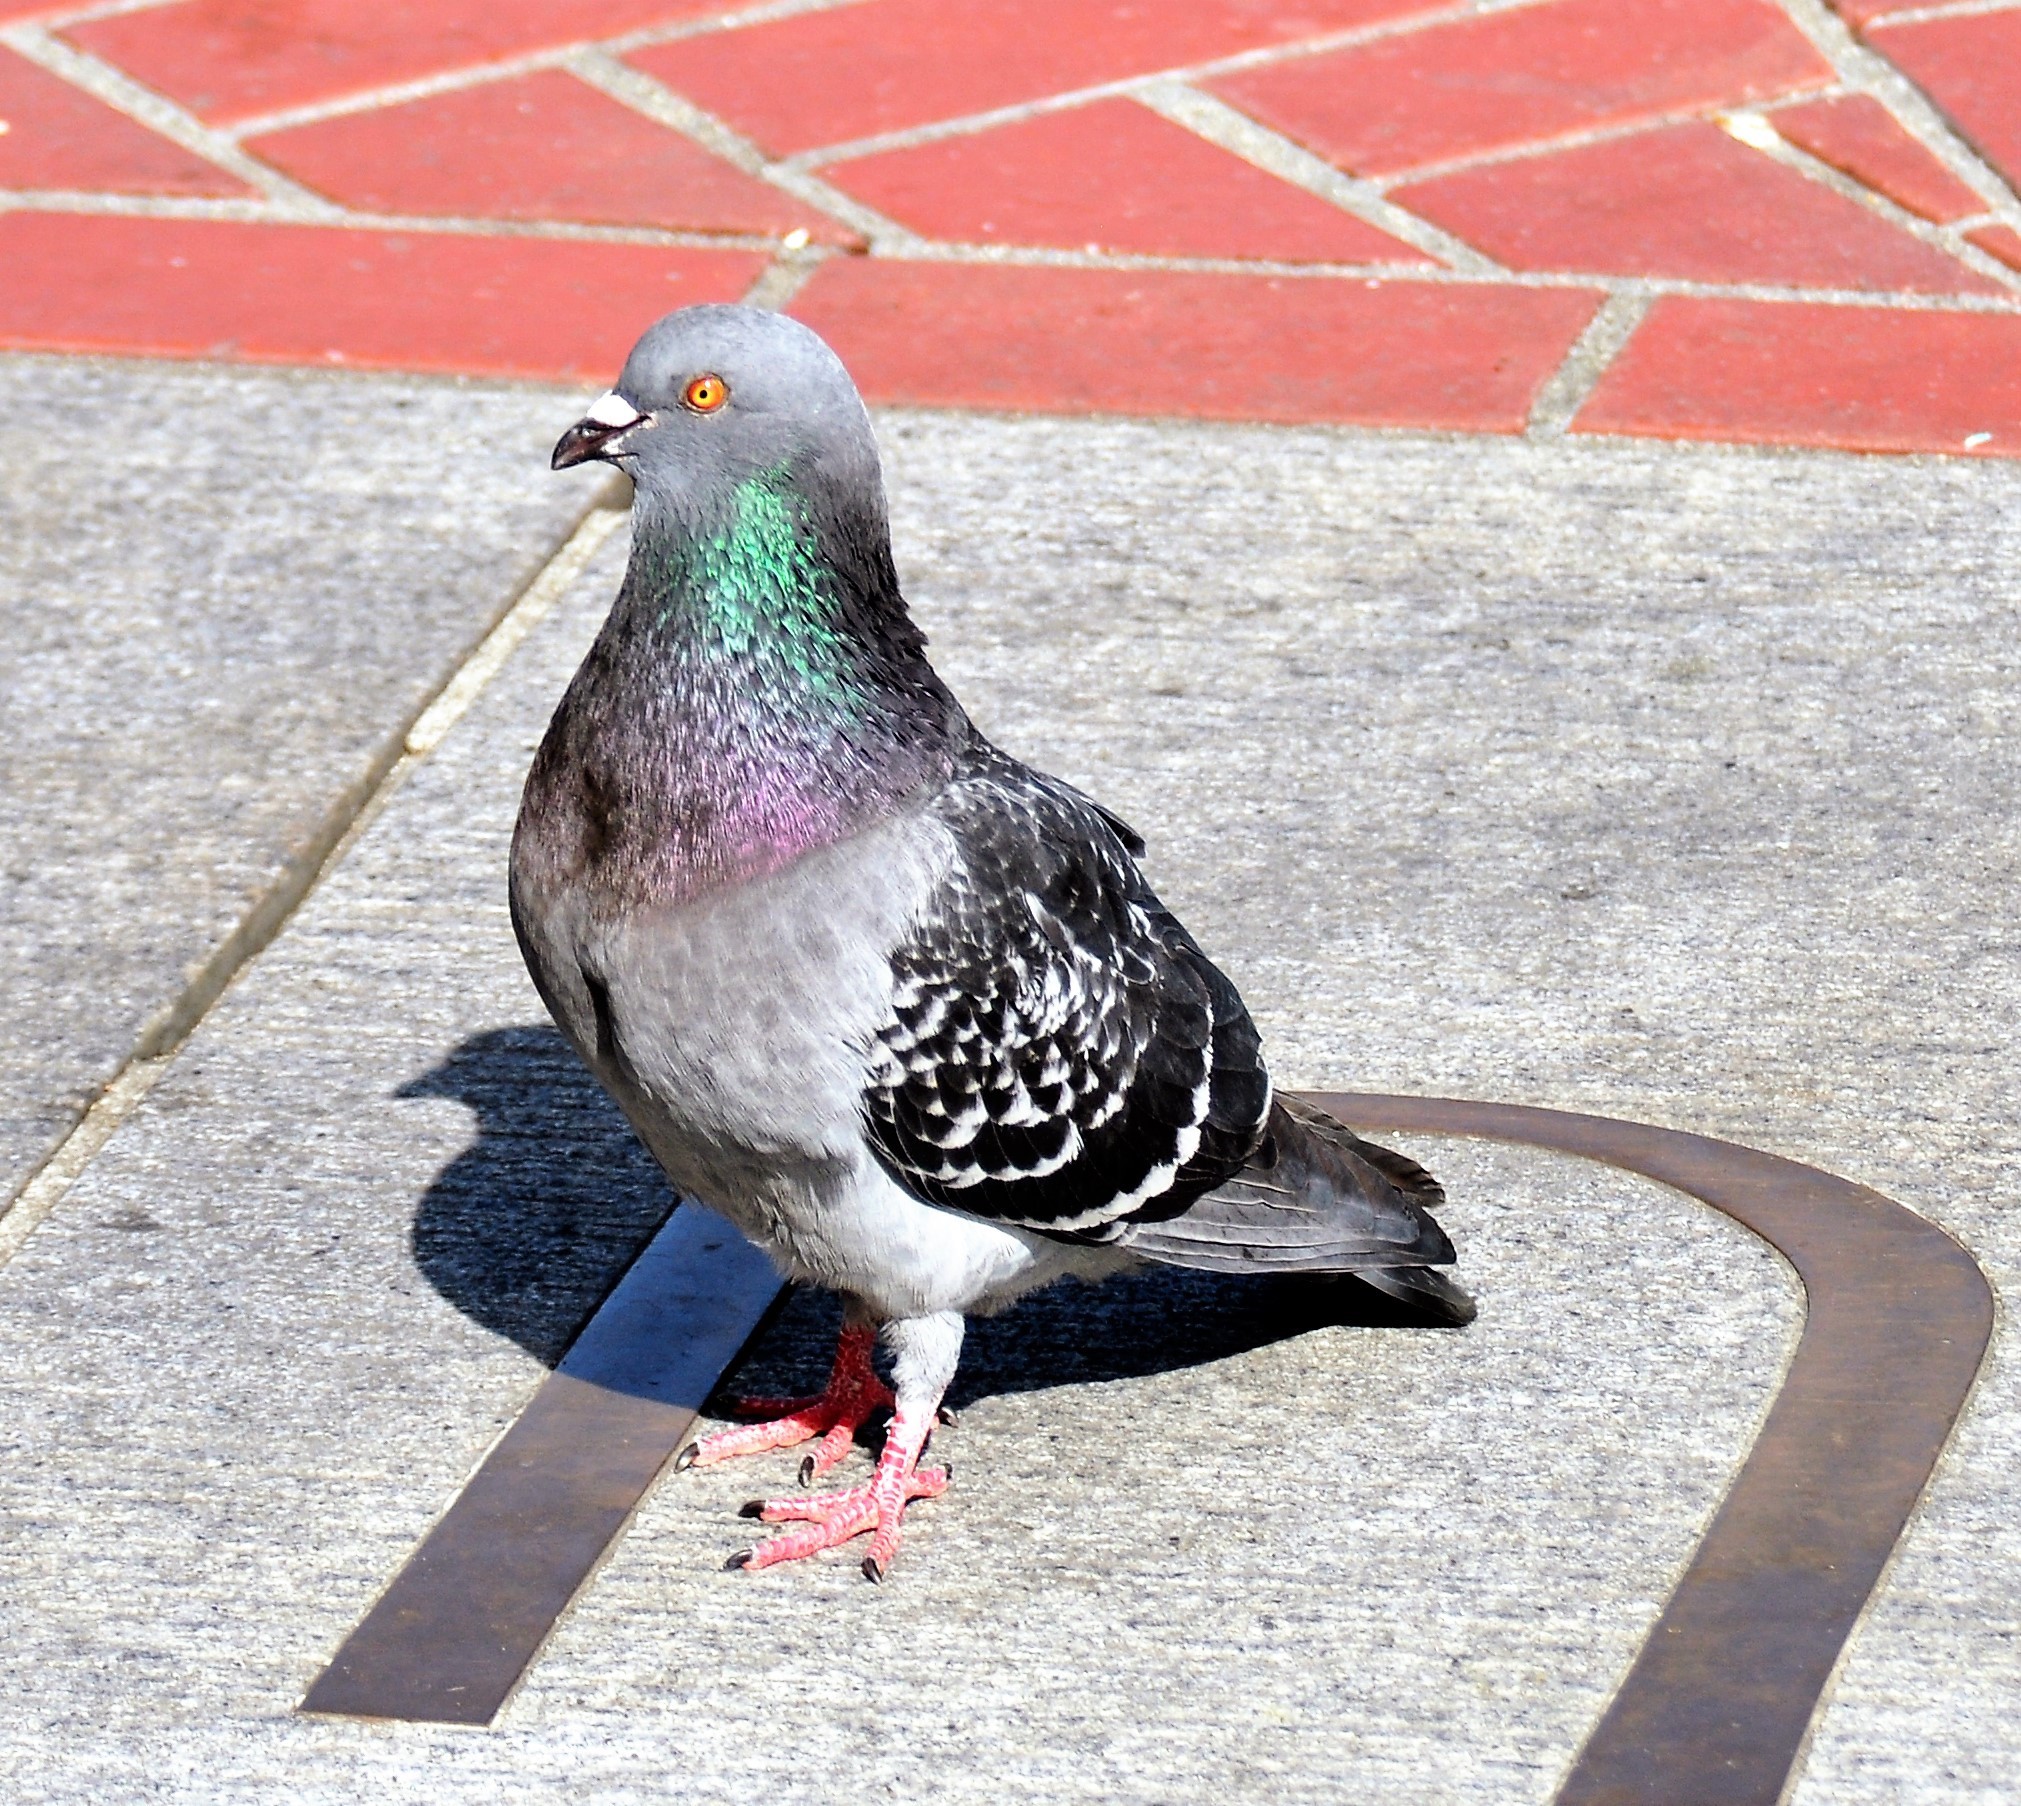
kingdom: Animalia
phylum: Chordata
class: Aves
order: Columbiformes
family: Columbidae
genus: Columba
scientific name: Columba livia
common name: Rock pigeon
